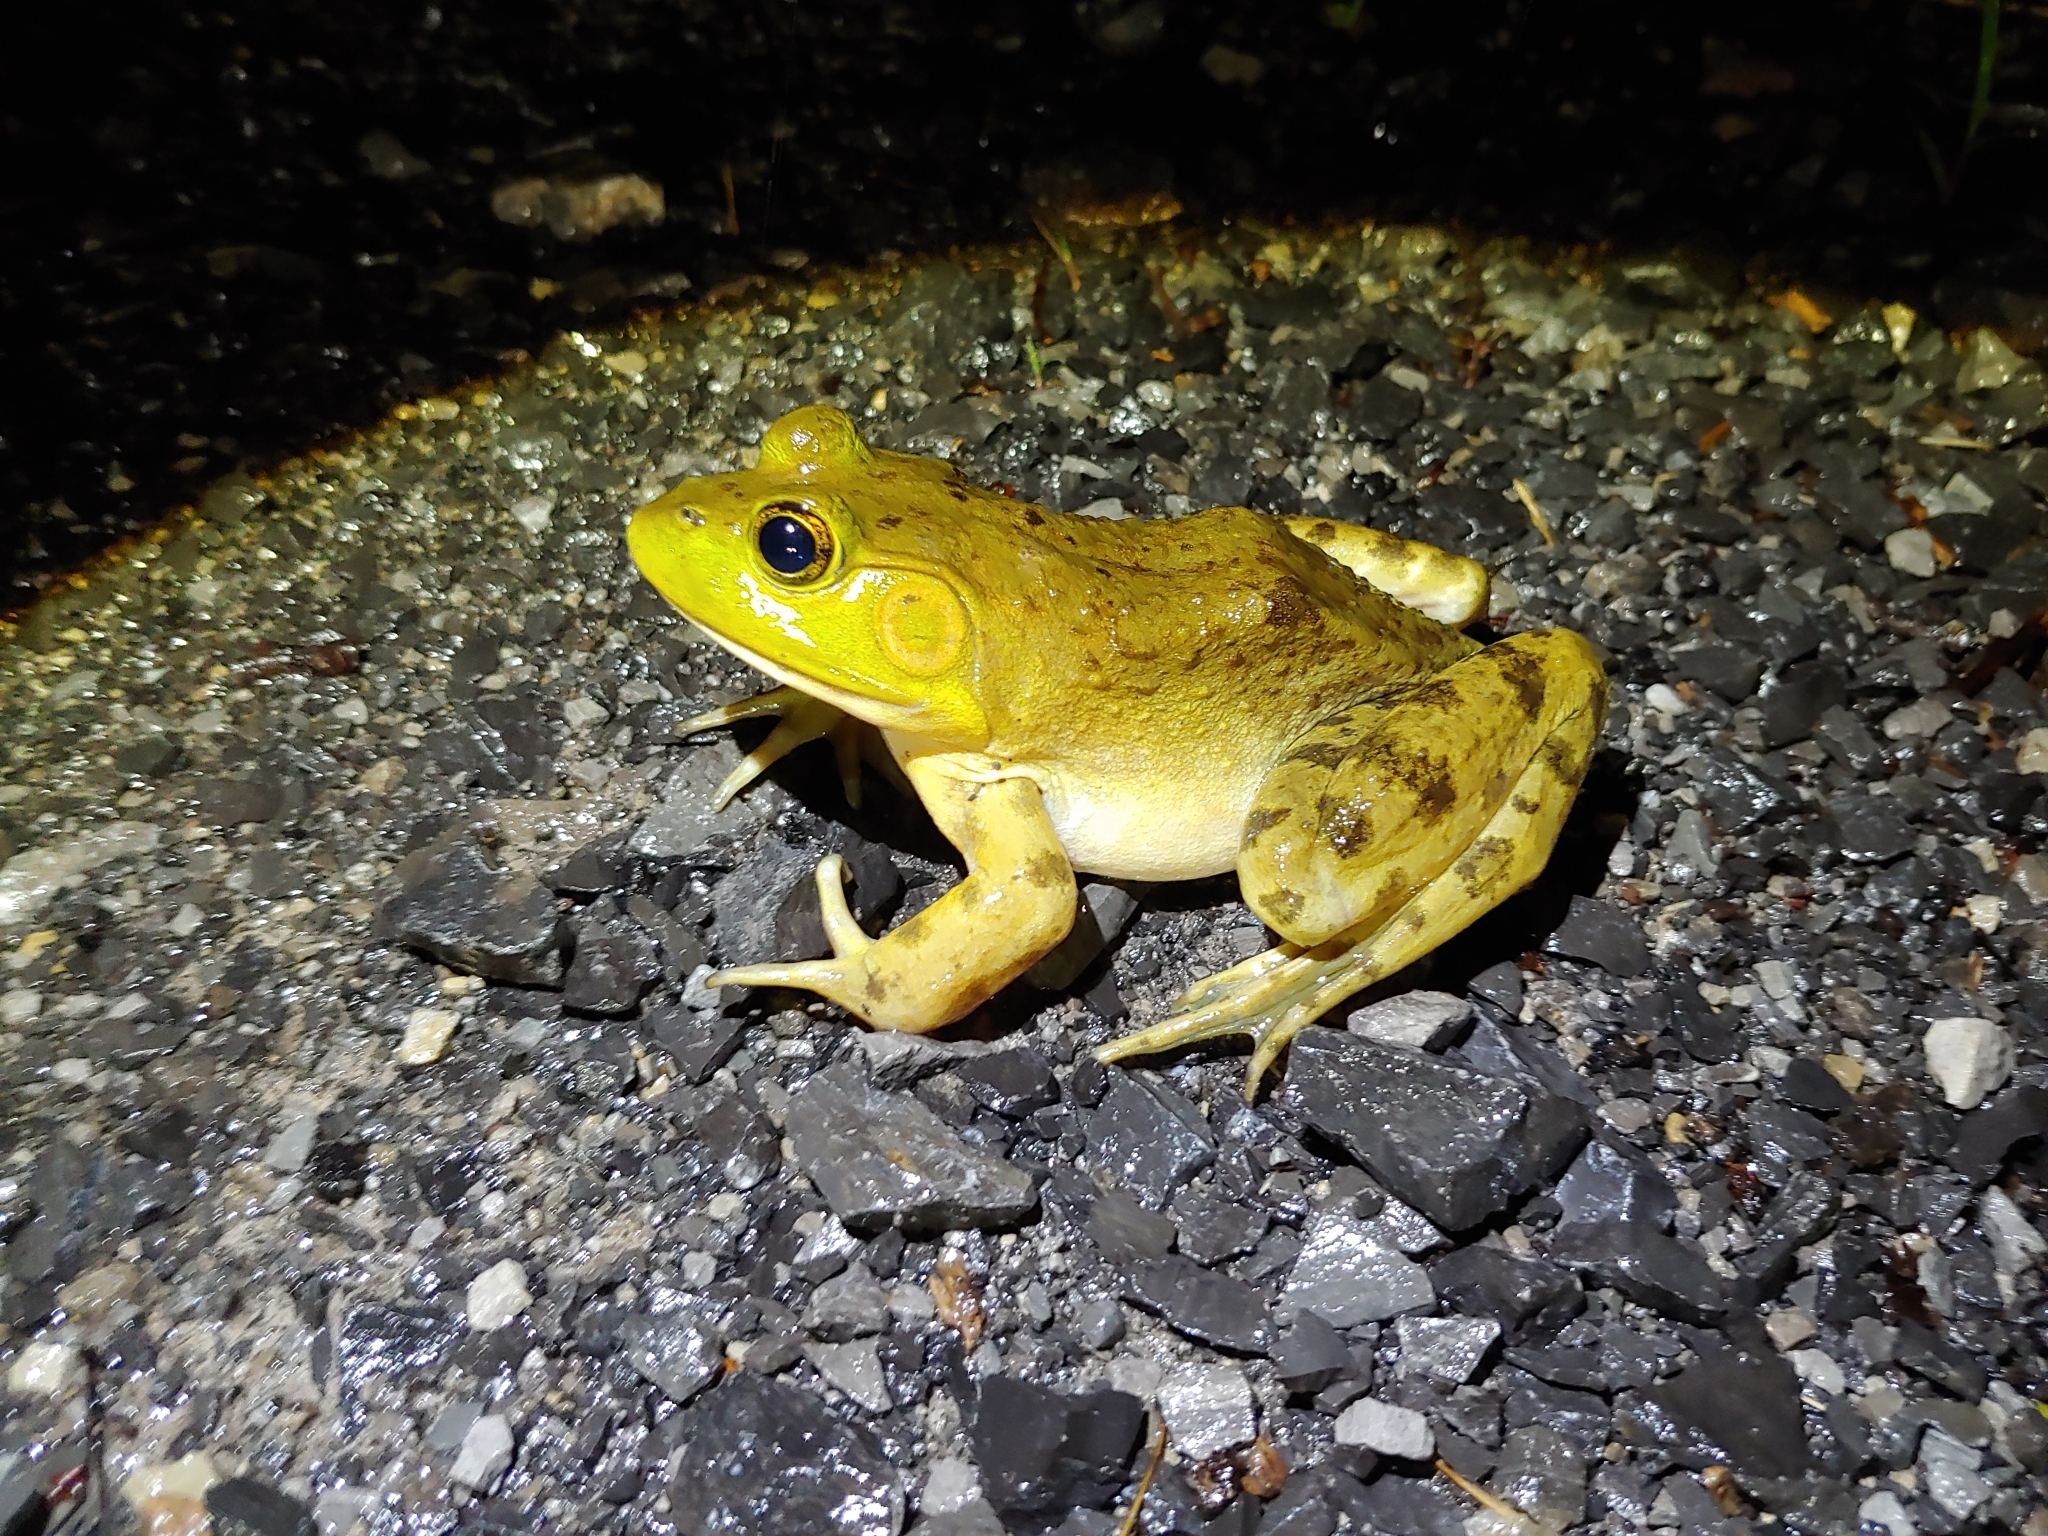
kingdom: Animalia
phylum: Chordata
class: Amphibia
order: Anura
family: Ranidae
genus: Lithobates
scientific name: Lithobates catesbeianus
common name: American bullfrog
